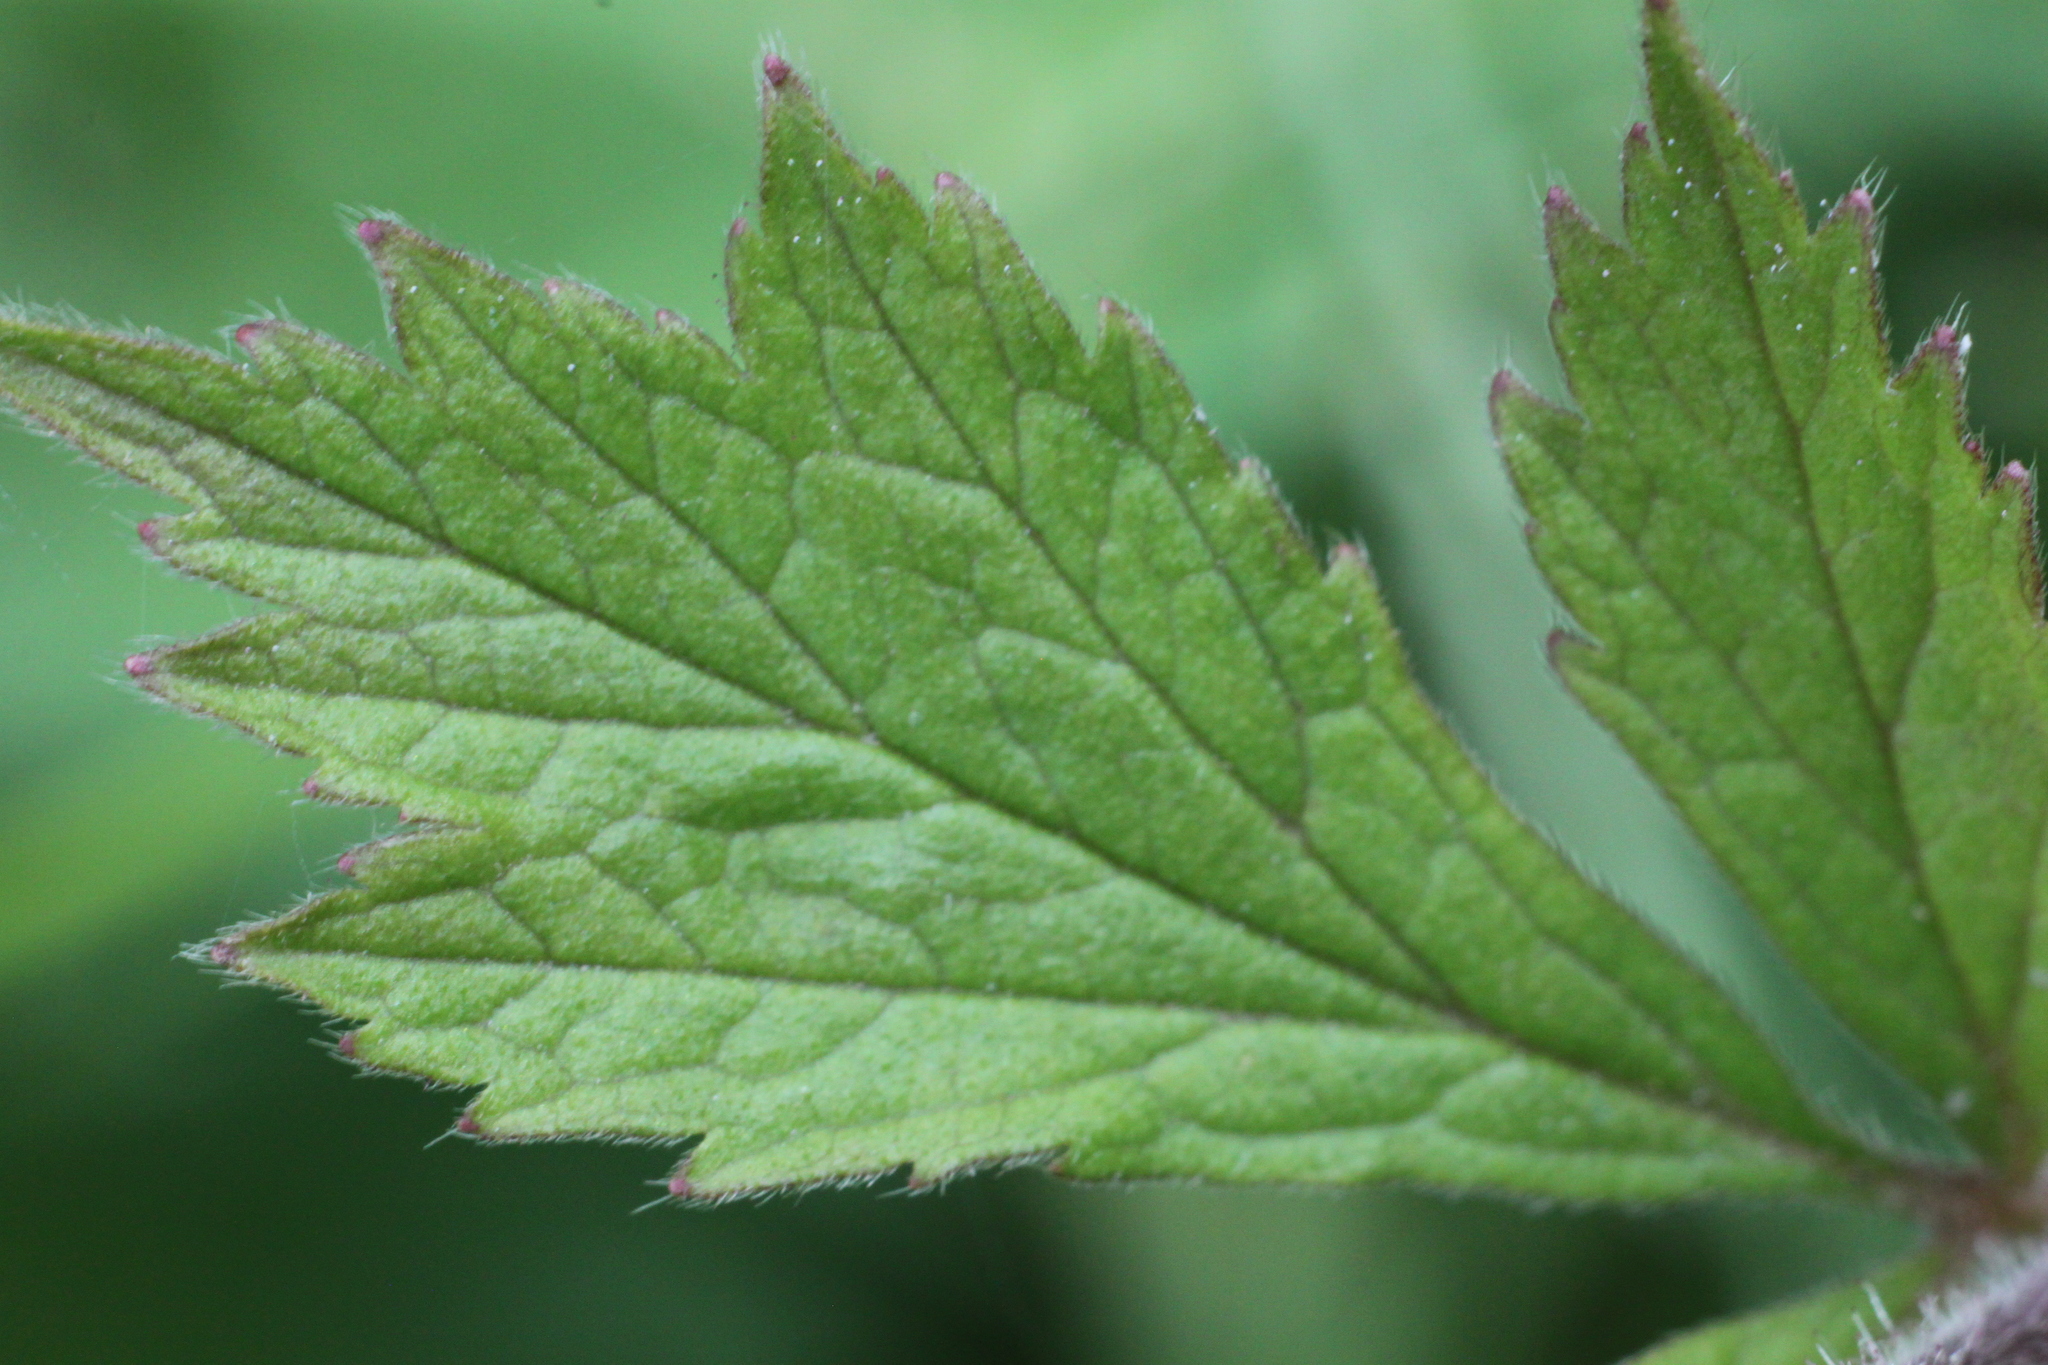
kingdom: Plantae
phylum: Tracheophyta
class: Magnoliopsida
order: Rosales
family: Rosaceae
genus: Geum
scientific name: Geum rivale
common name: Water avens
